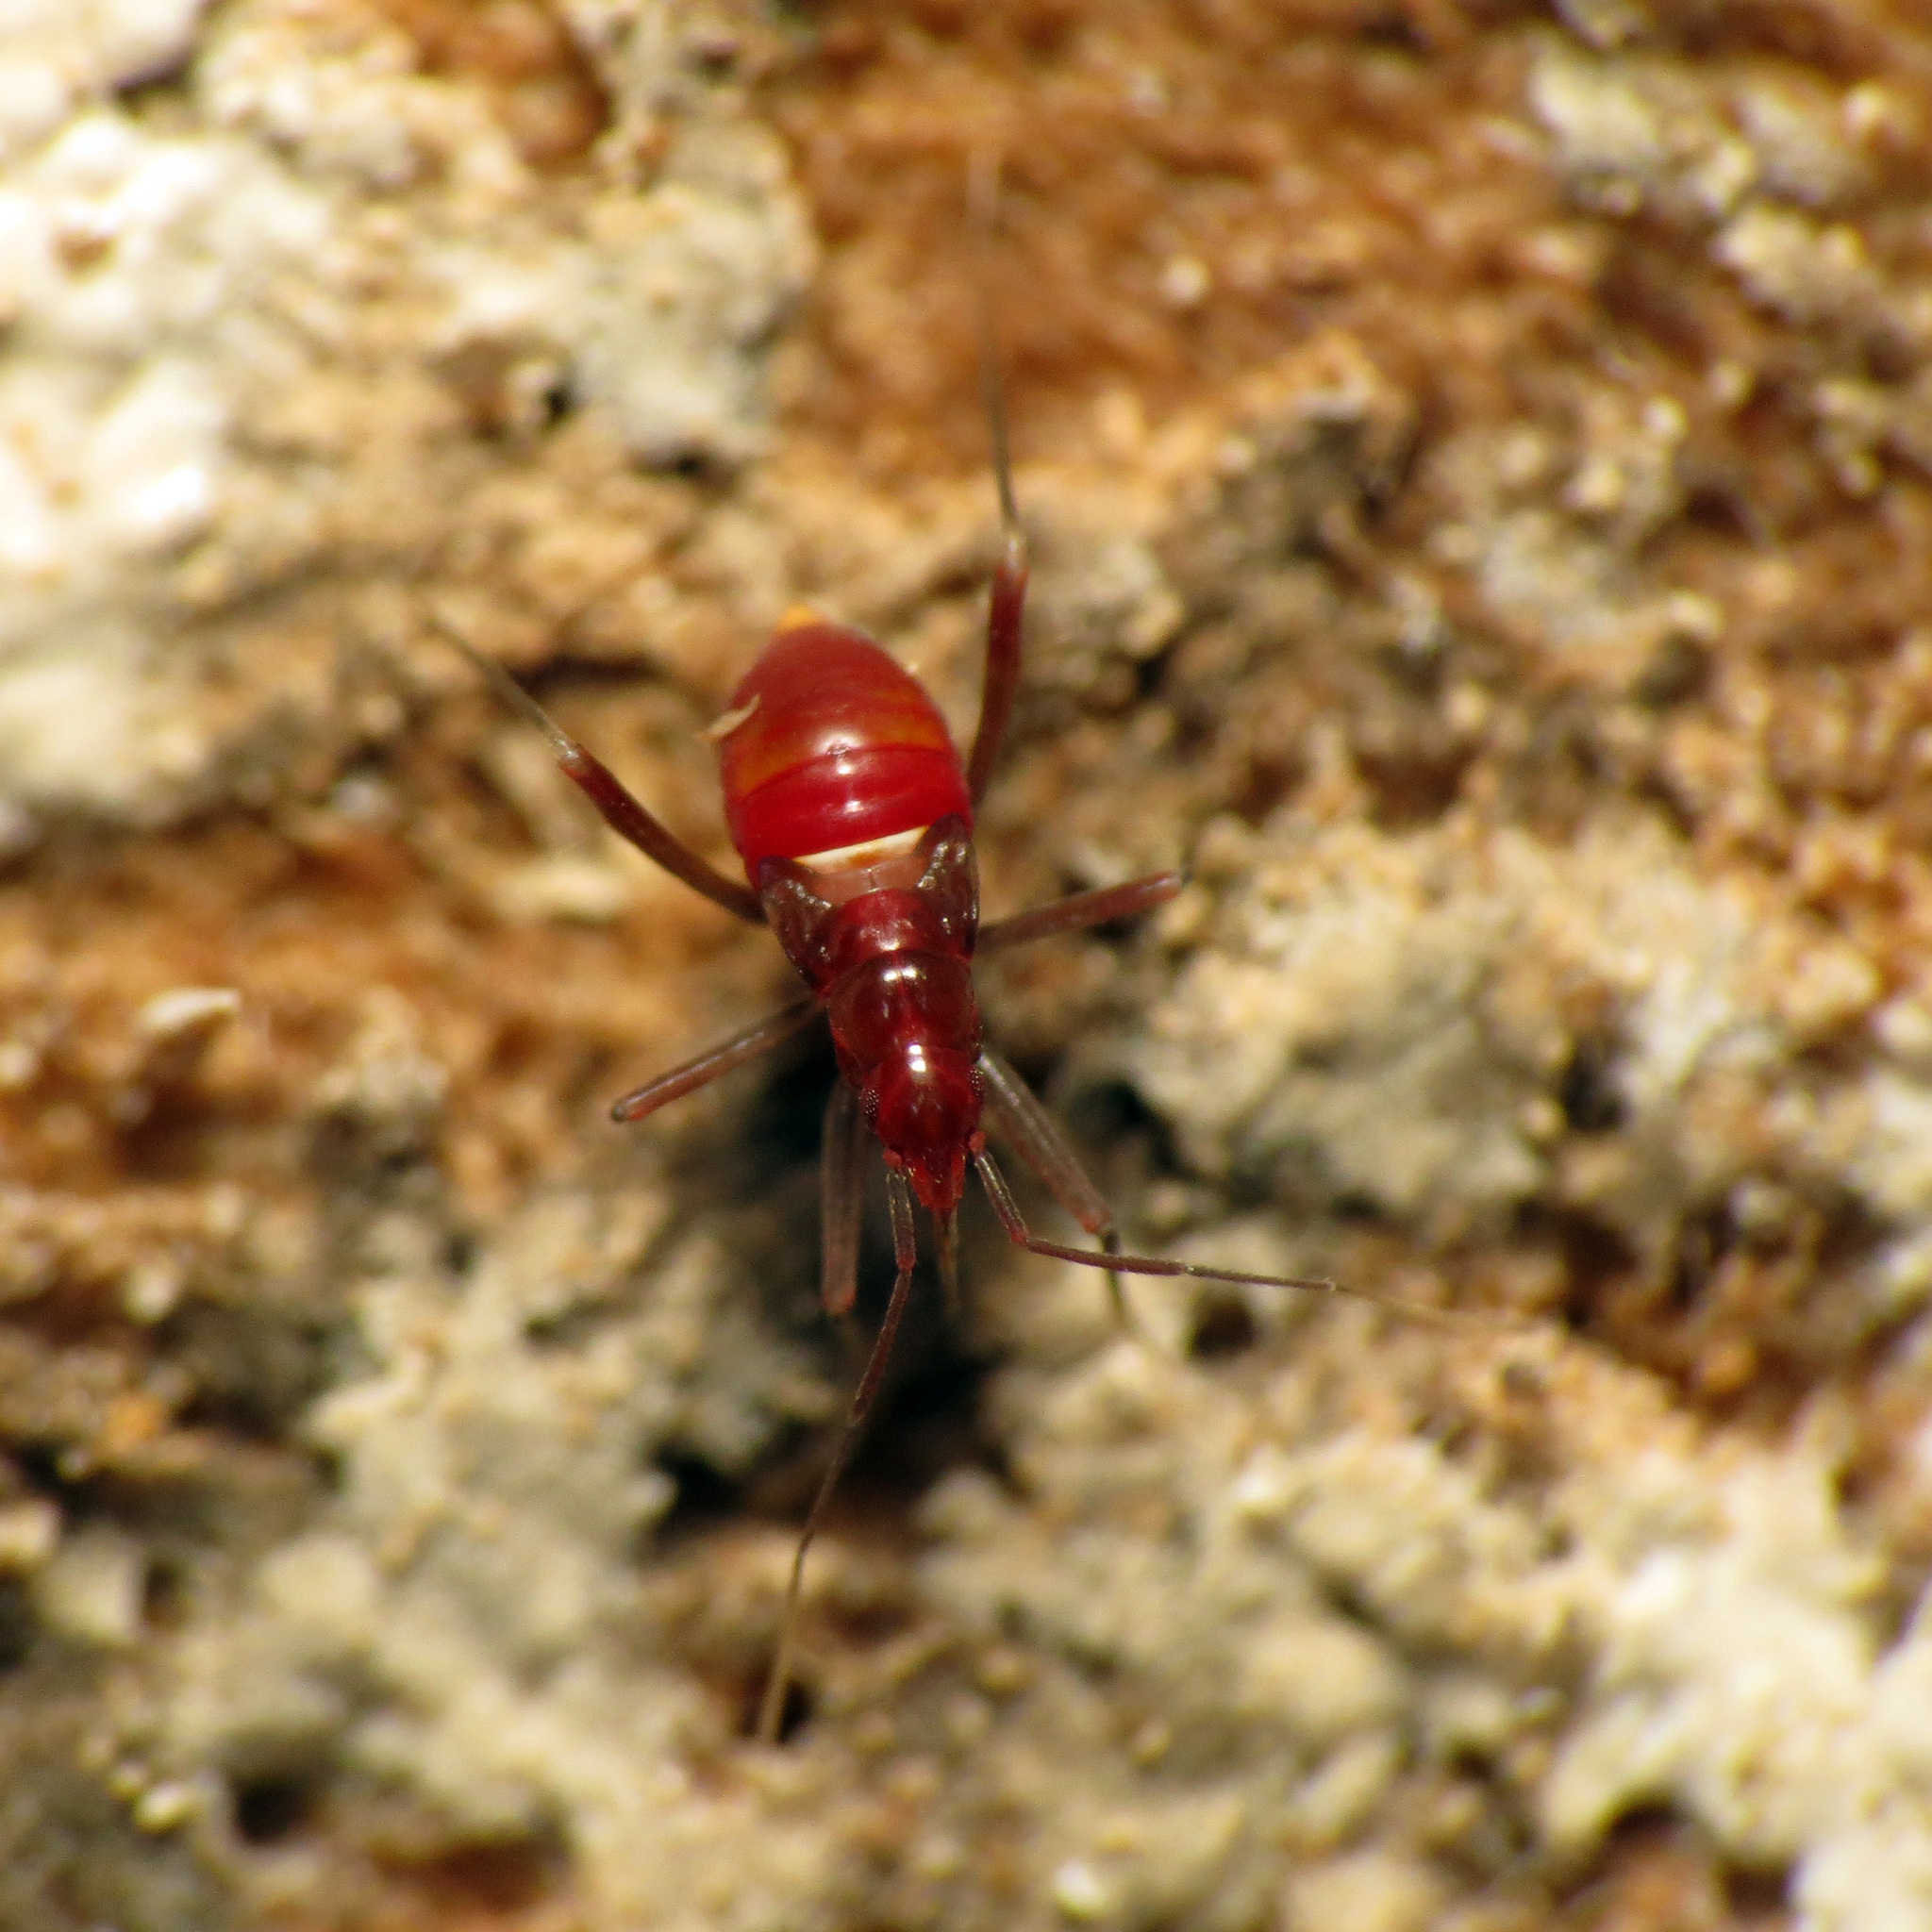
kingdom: Animalia
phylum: Arthropoda
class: Insecta
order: Hemiptera
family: Miridae
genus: Fulvius
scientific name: Fulvius imbecilis
